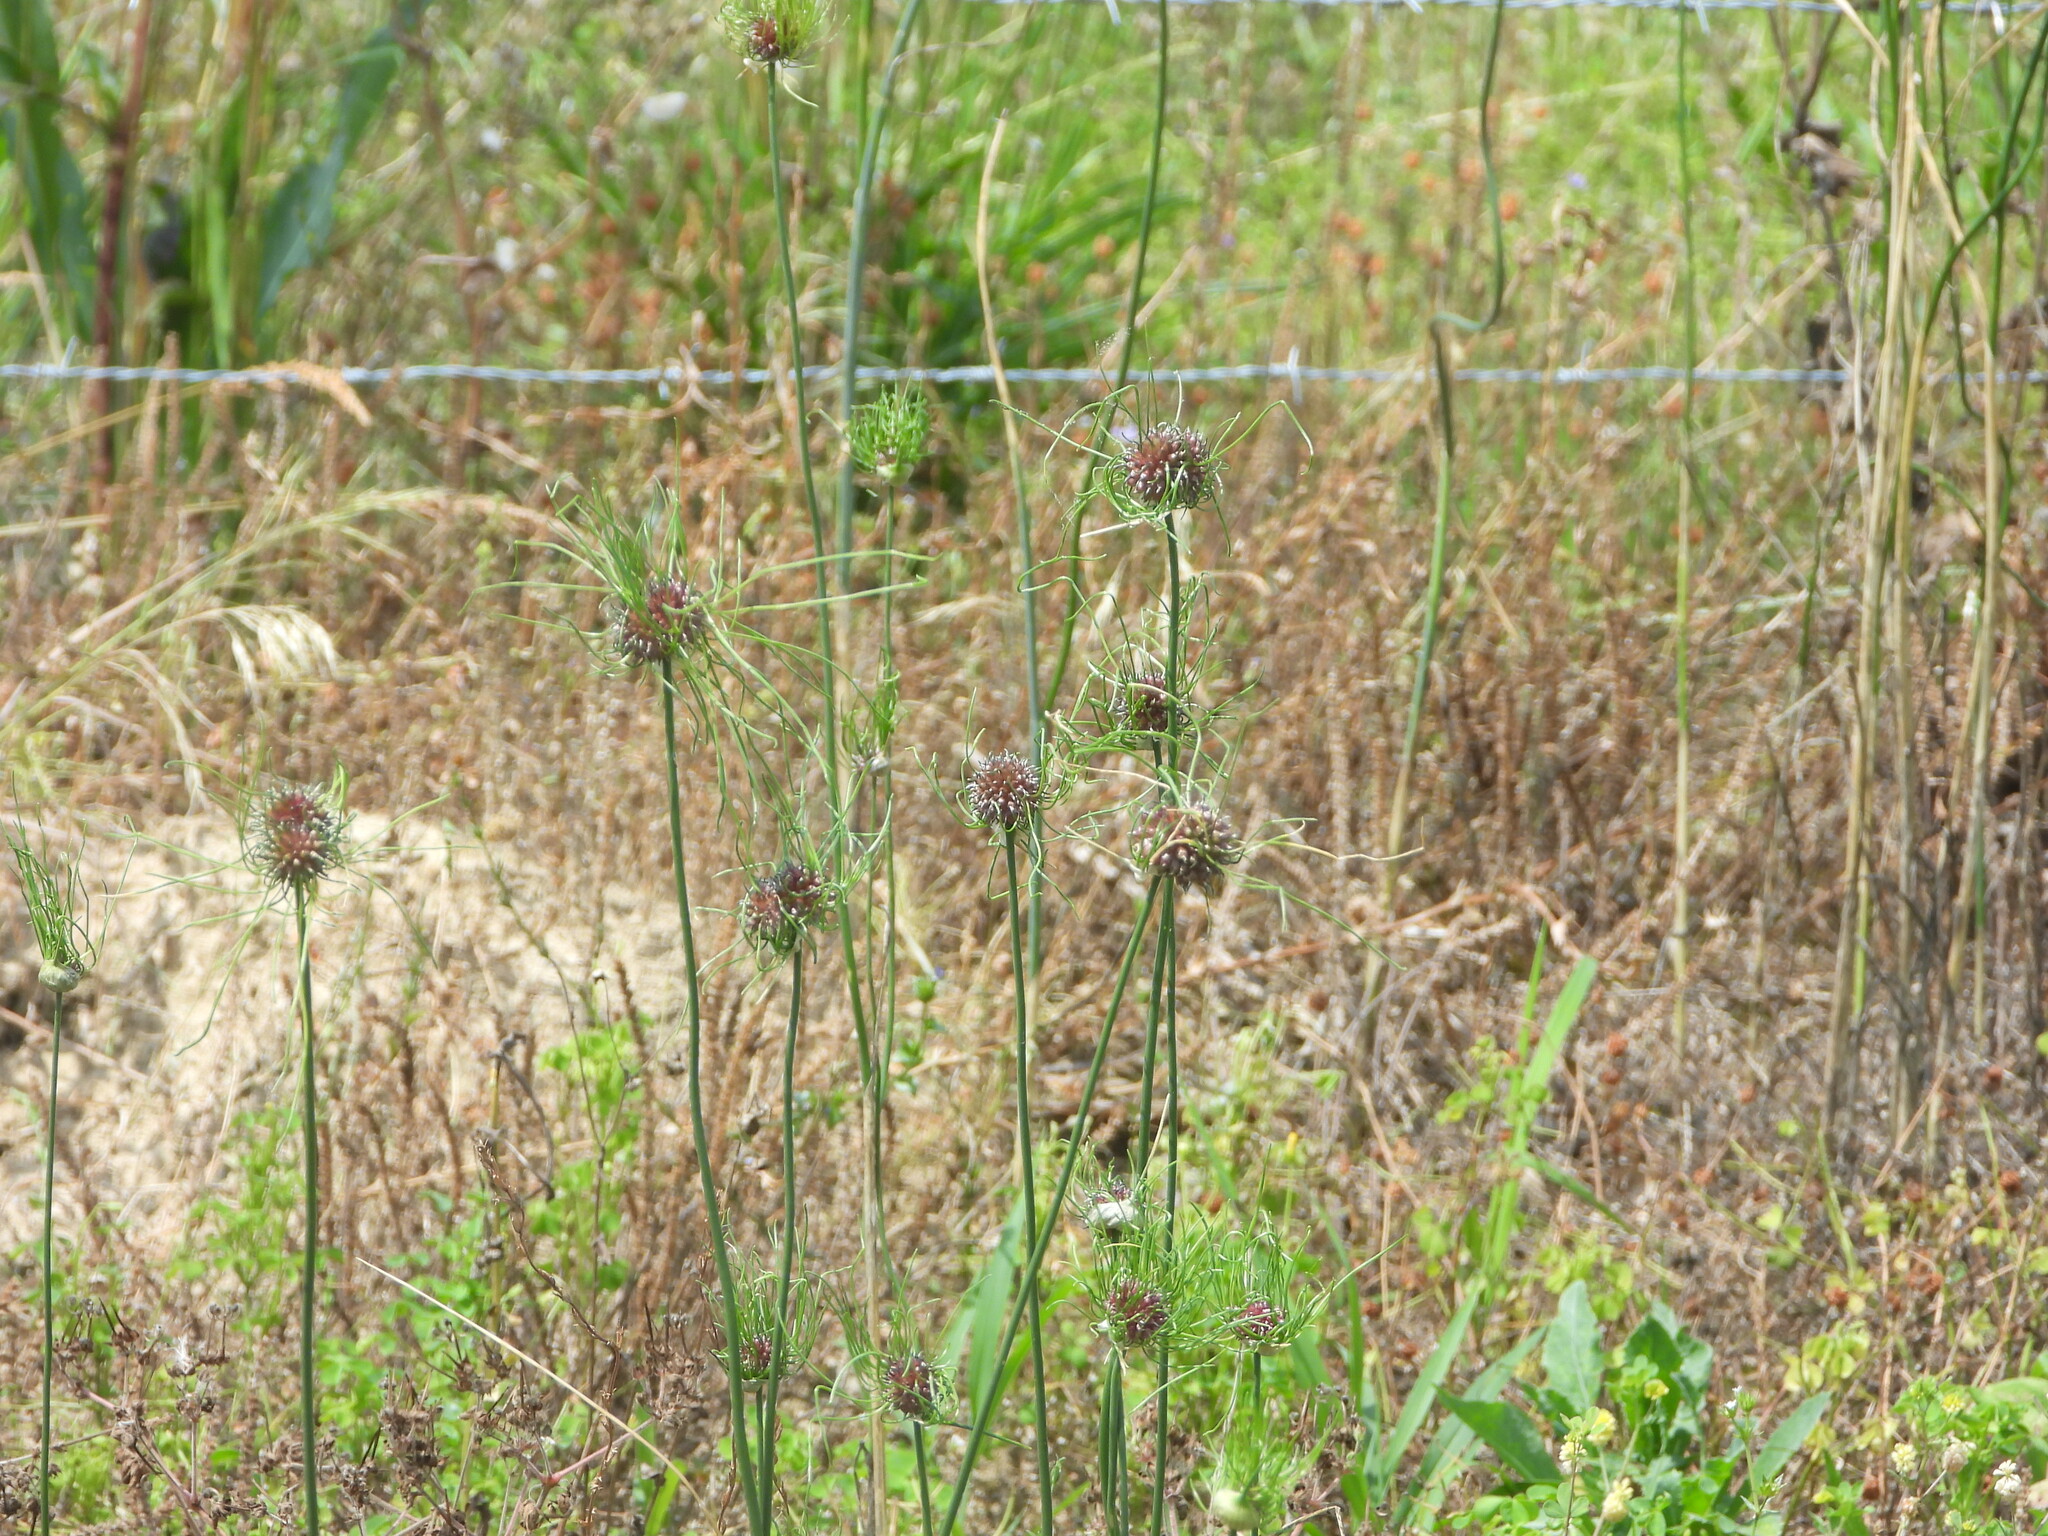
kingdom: Plantae
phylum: Tracheophyta
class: Liliopsida
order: Asparagales
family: Amaryllidaceae
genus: Allium
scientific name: Allium vineale
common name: Crow garlic
